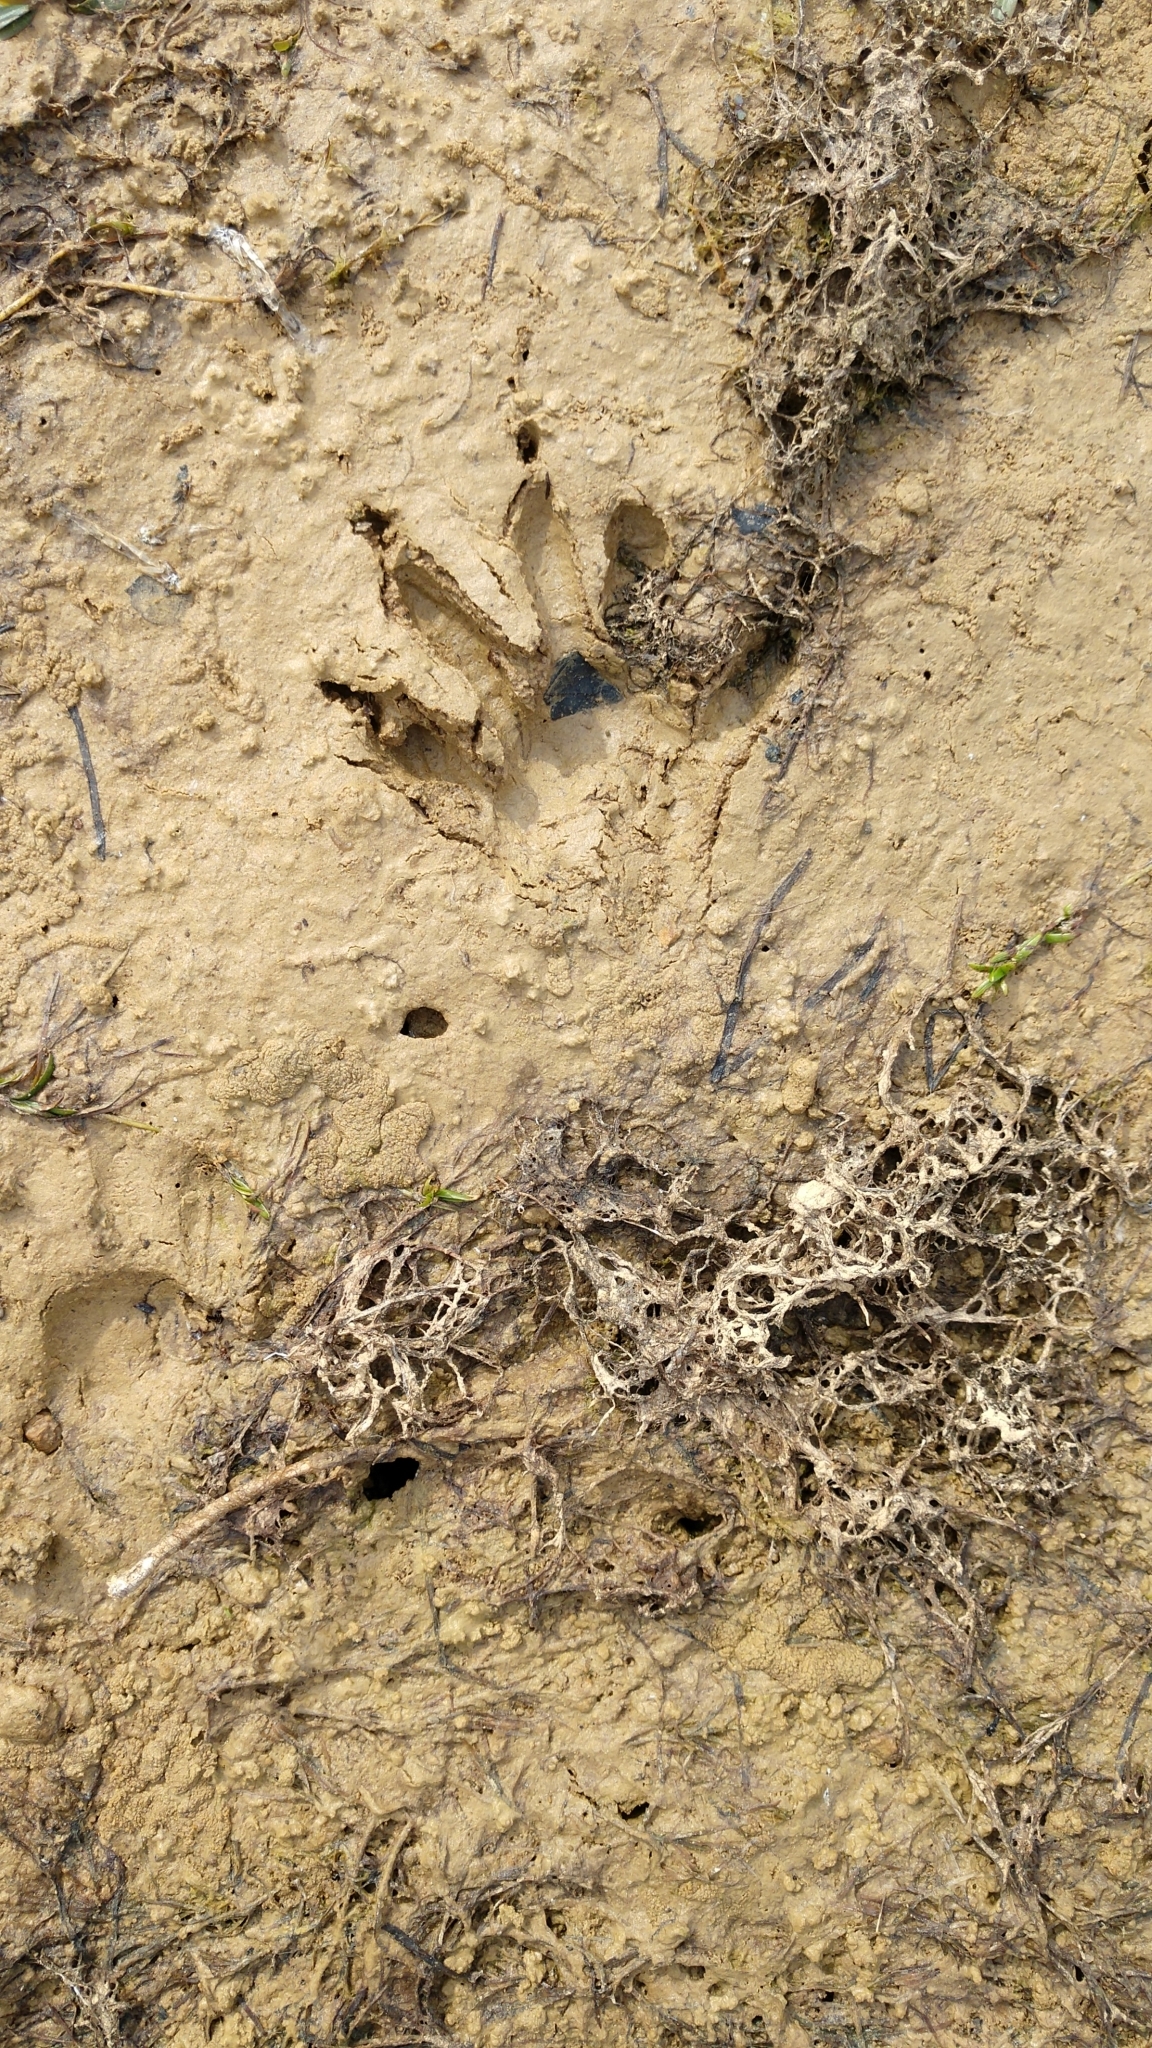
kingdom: Animalia
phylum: Chordata
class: Mammalia
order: Carnivora
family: Procyonidae
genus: Procyon
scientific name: Procyon lotor
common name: Raccoon
